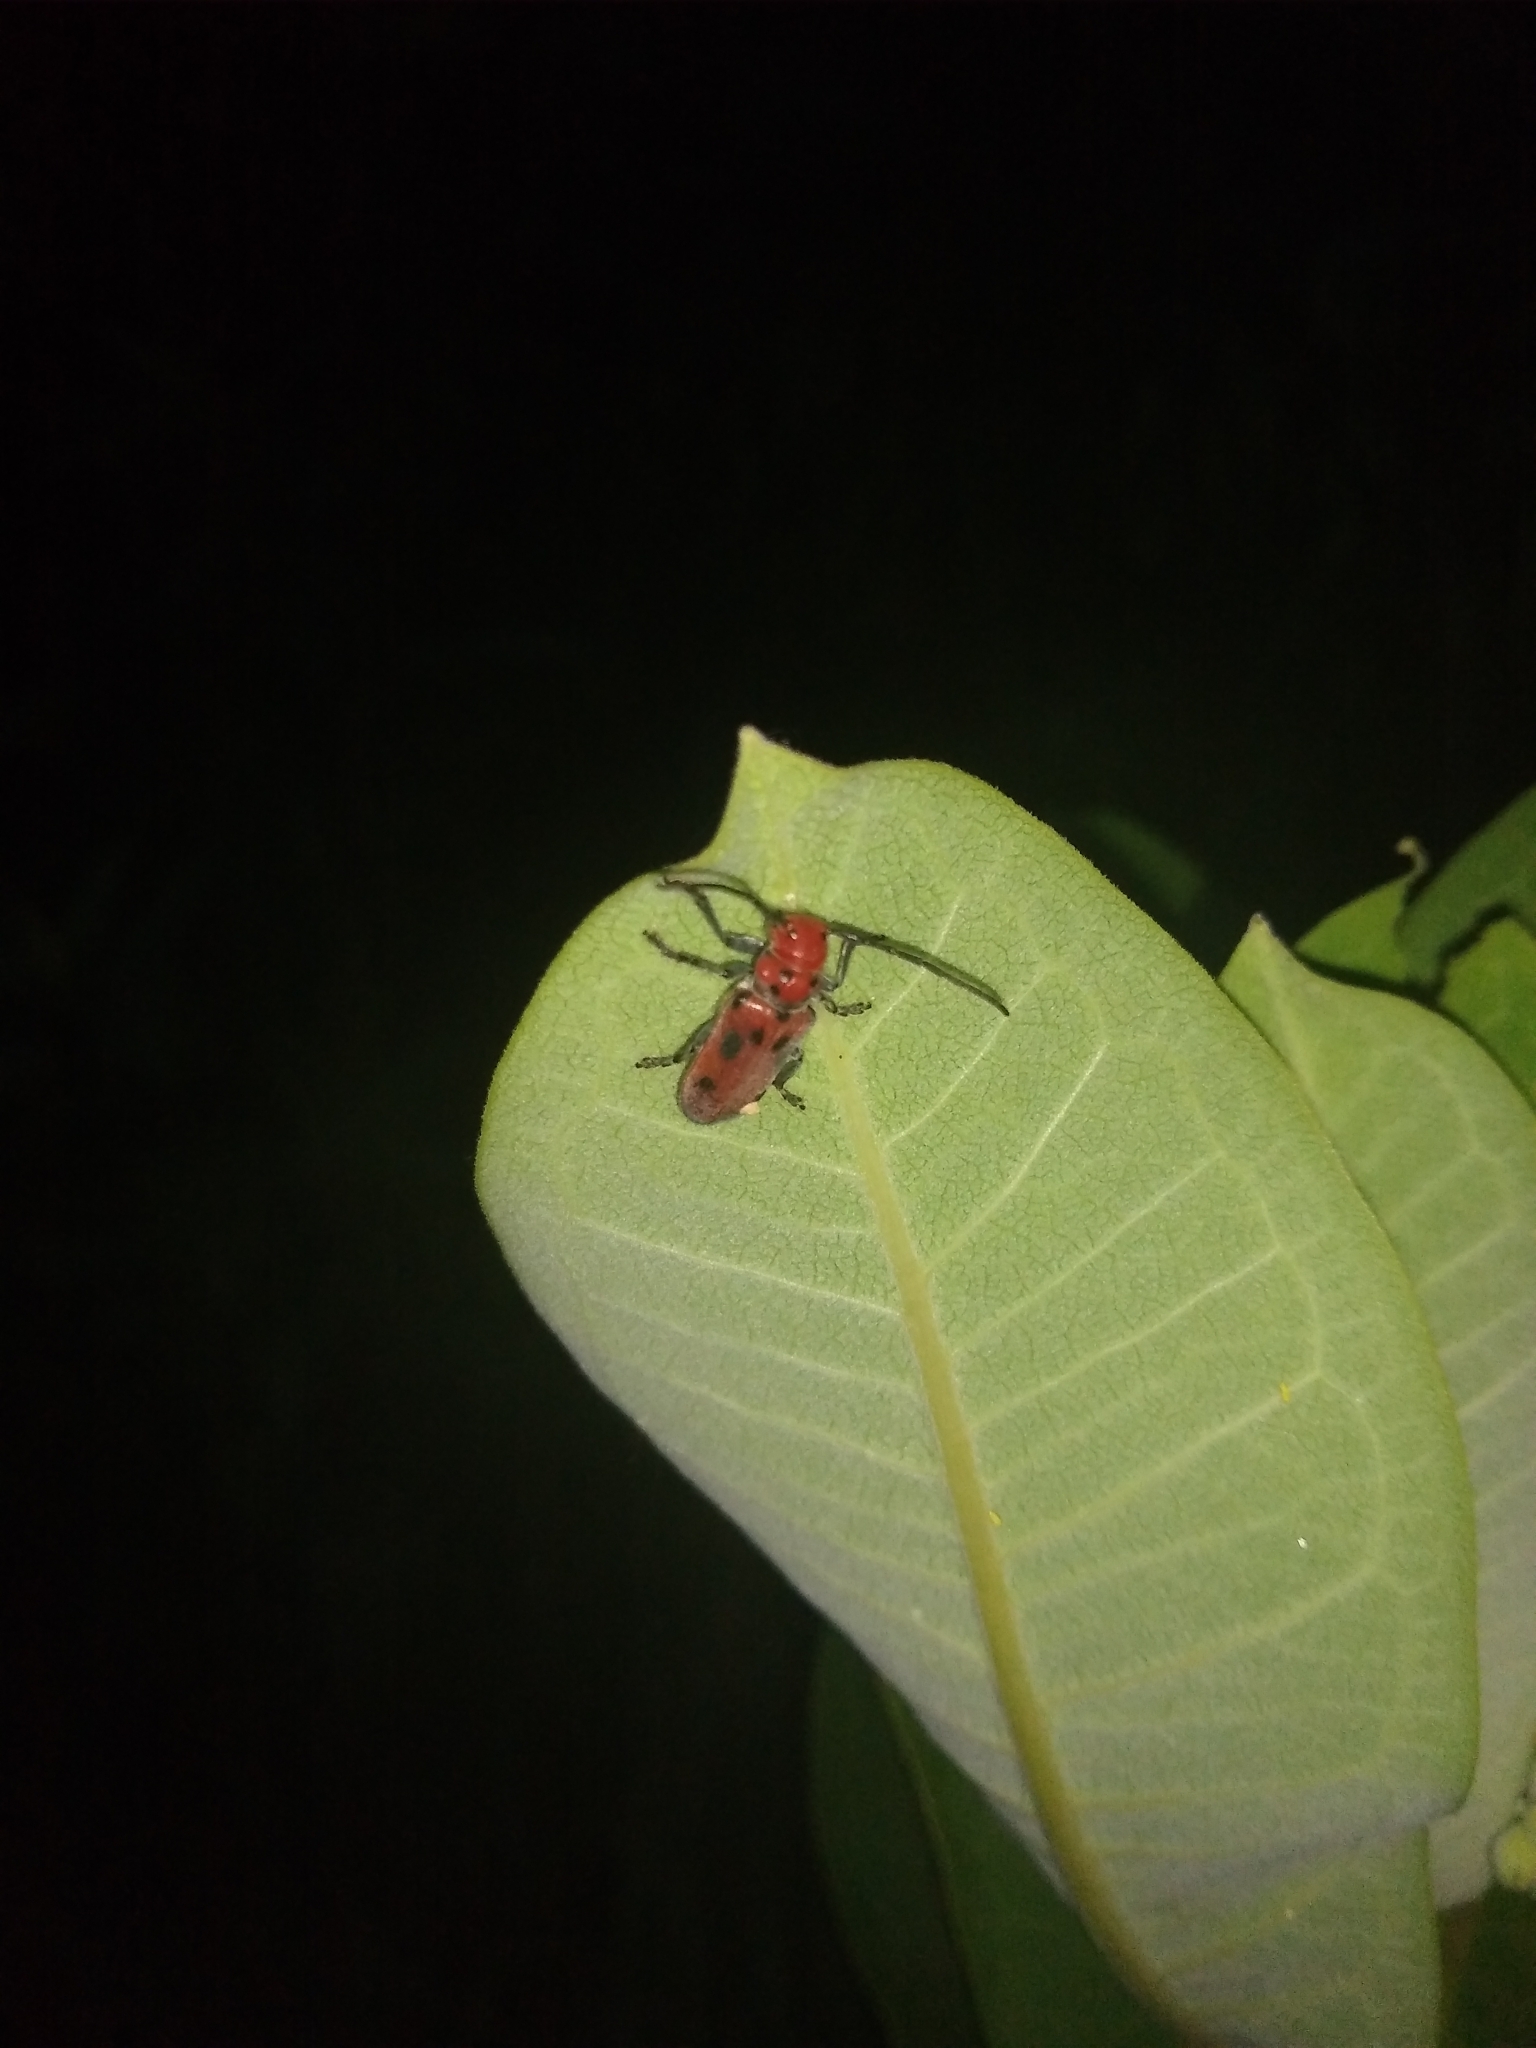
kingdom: Animalia
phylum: Arthropoda
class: Insecta
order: Coleoptera
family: Cerambycidae
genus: Tetraopes
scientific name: Tetraopes tetrophthalmus
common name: Red milkweed beetle
